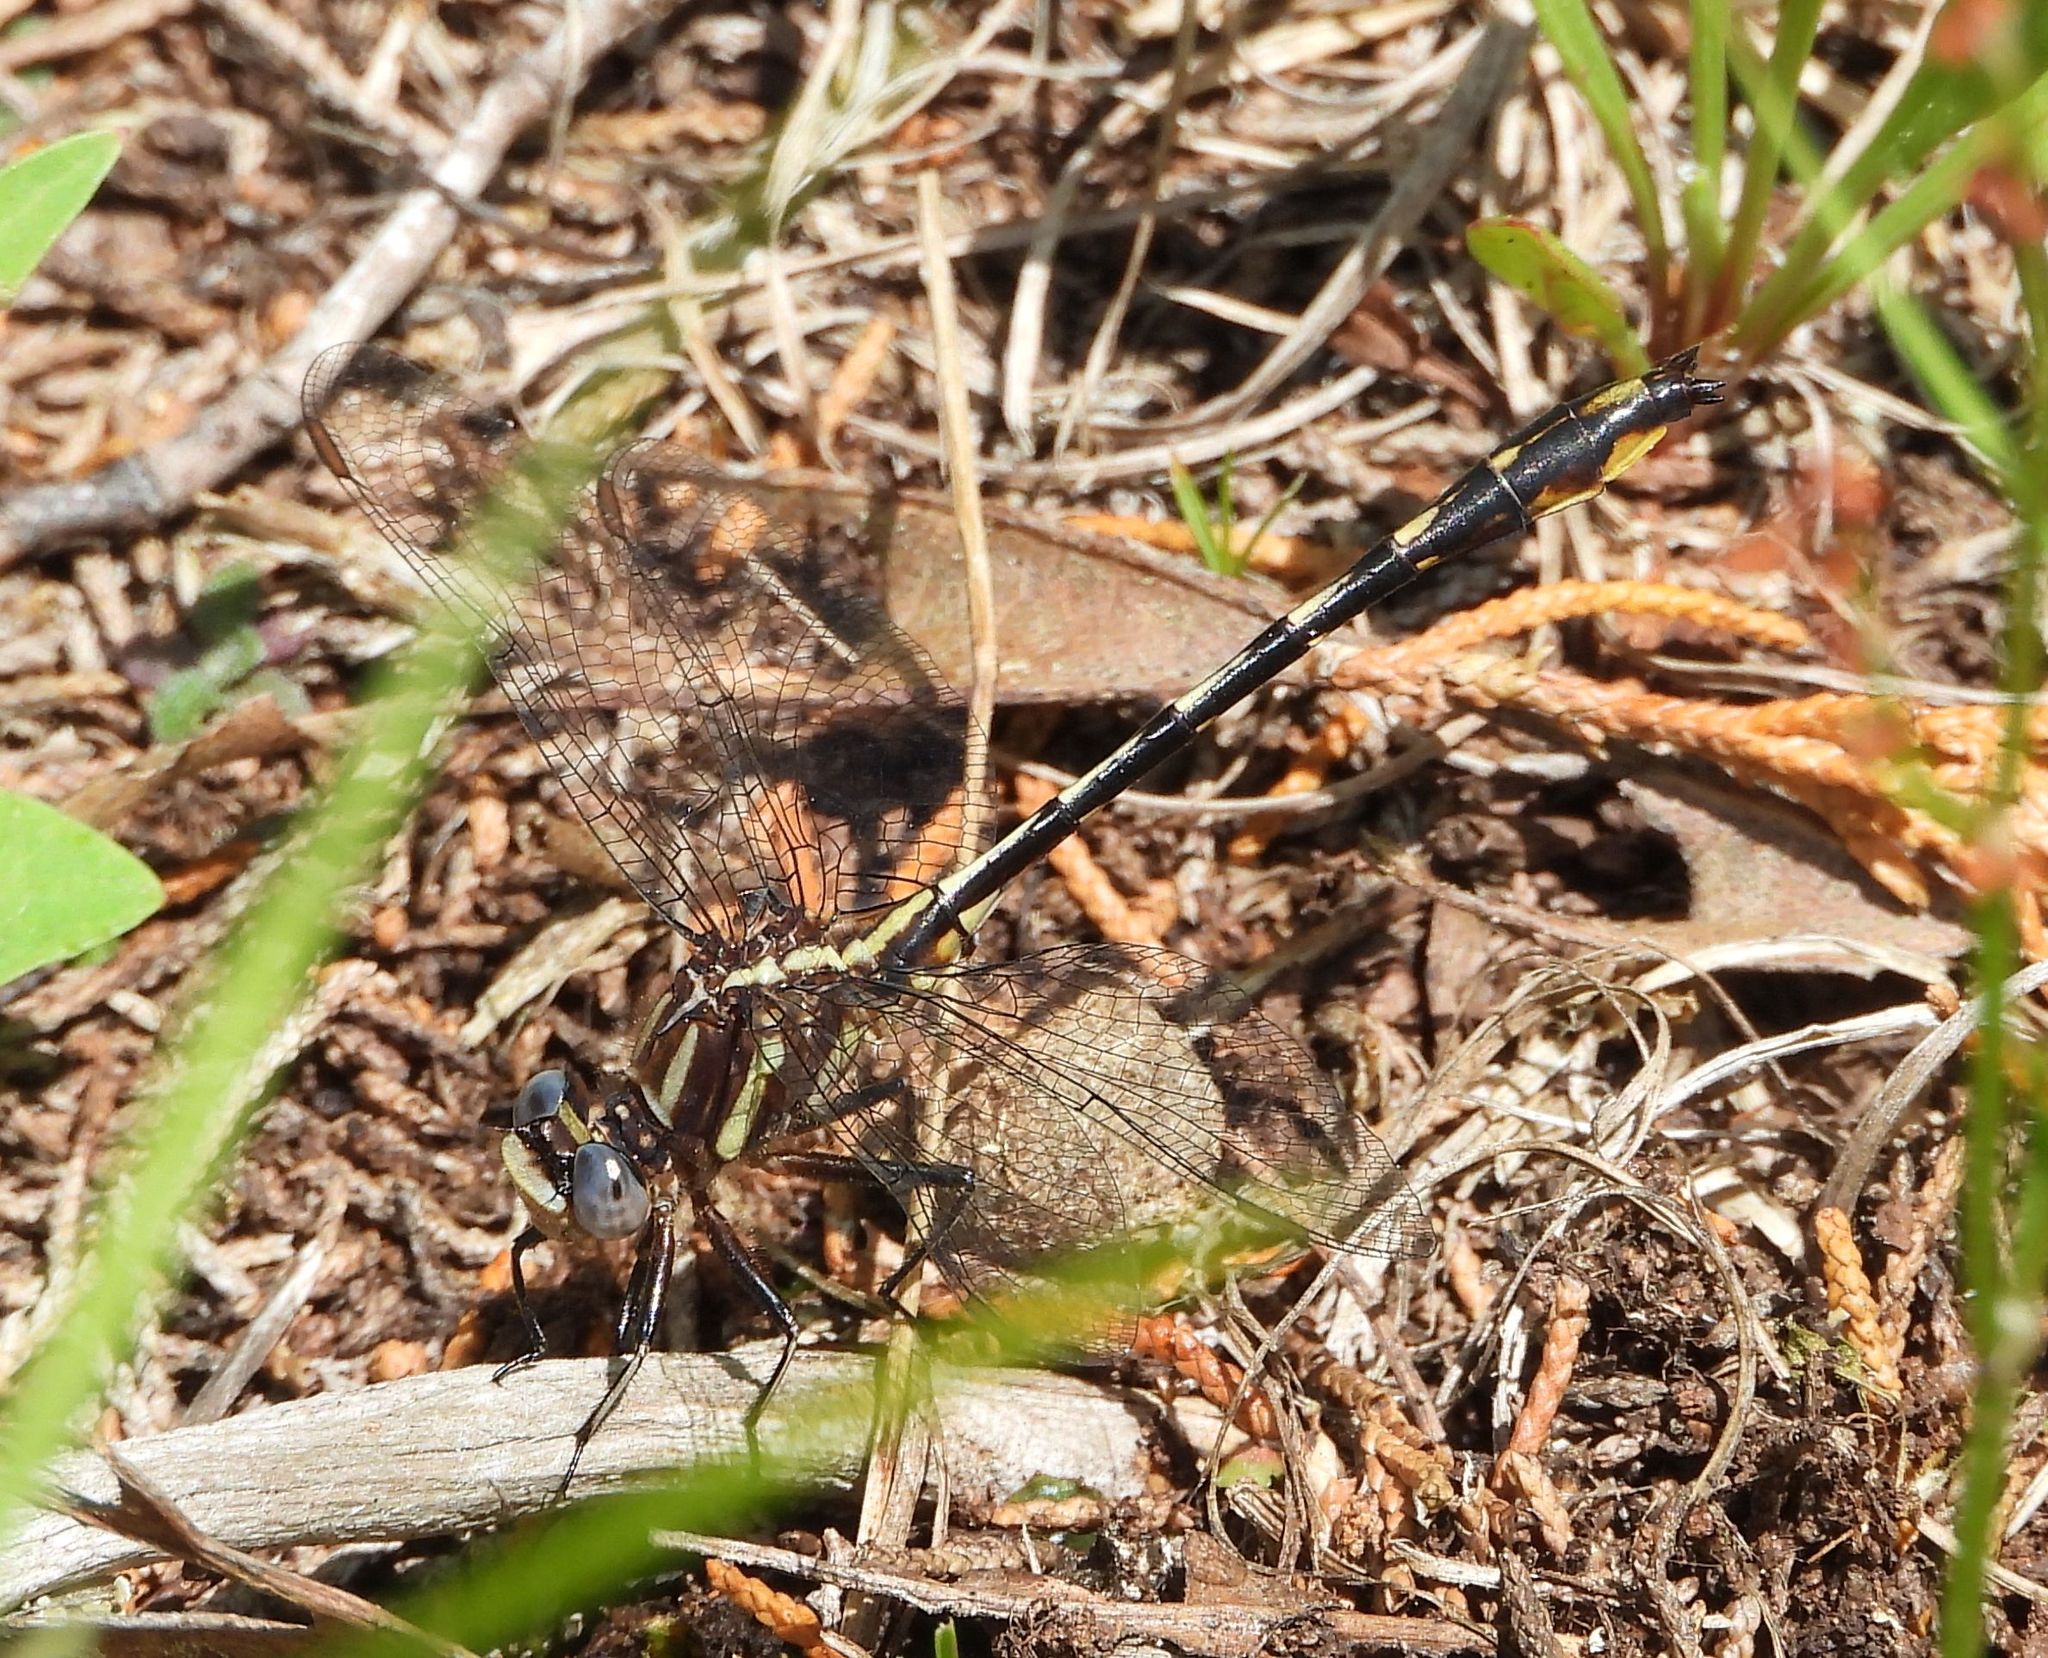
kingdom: Animalia
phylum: Arthropoda
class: Insecta
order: Odonata
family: Gomphidae
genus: Phanogomphus
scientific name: Phanogomphus exilis
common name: Lancet clubtail
